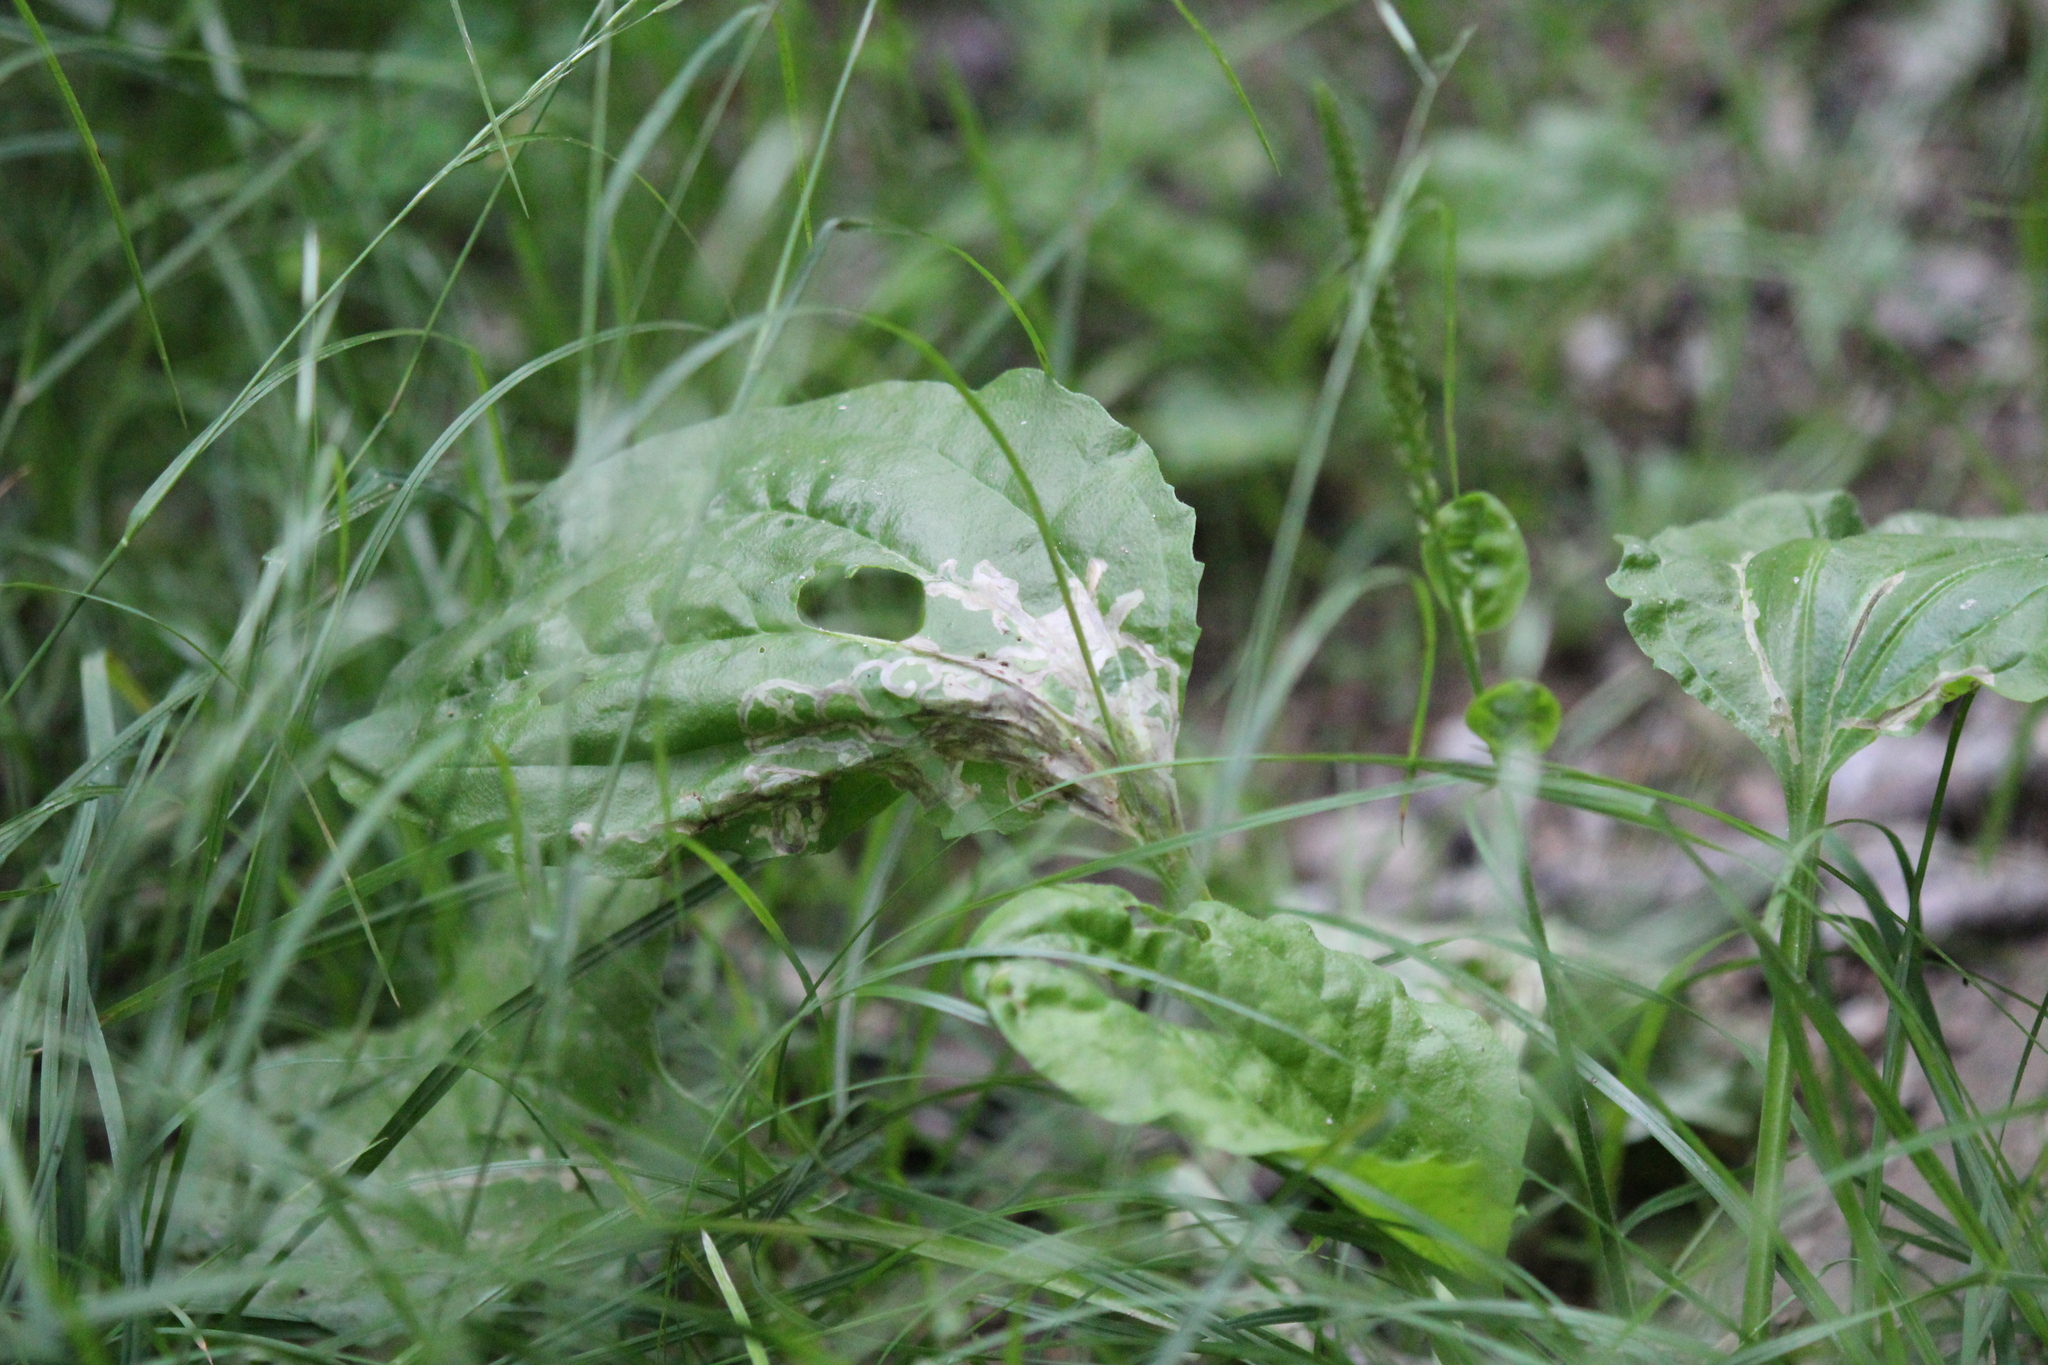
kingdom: Animalia
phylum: Arthropoda
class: Insecta
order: Coleoptera
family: Chrysomelidae
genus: Dibolia
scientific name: Dibolia borealis
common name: Northern plantain flea beetle
